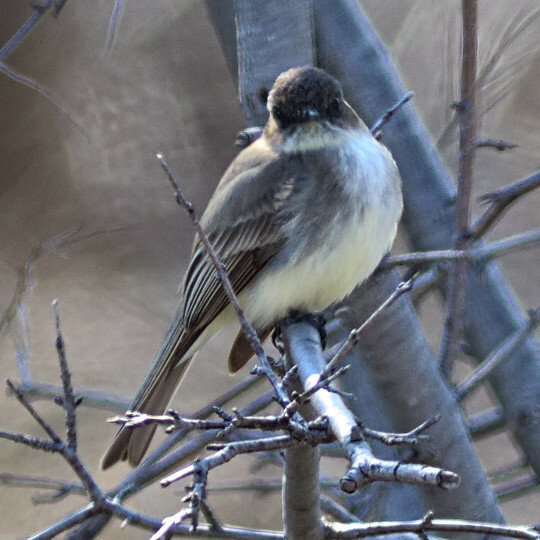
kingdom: Animalia
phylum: Chordata
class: Aves
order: Passeriformes
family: Tyrannidae
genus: Sayornis
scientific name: Sayornis phoebe
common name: Eastern phoebe
